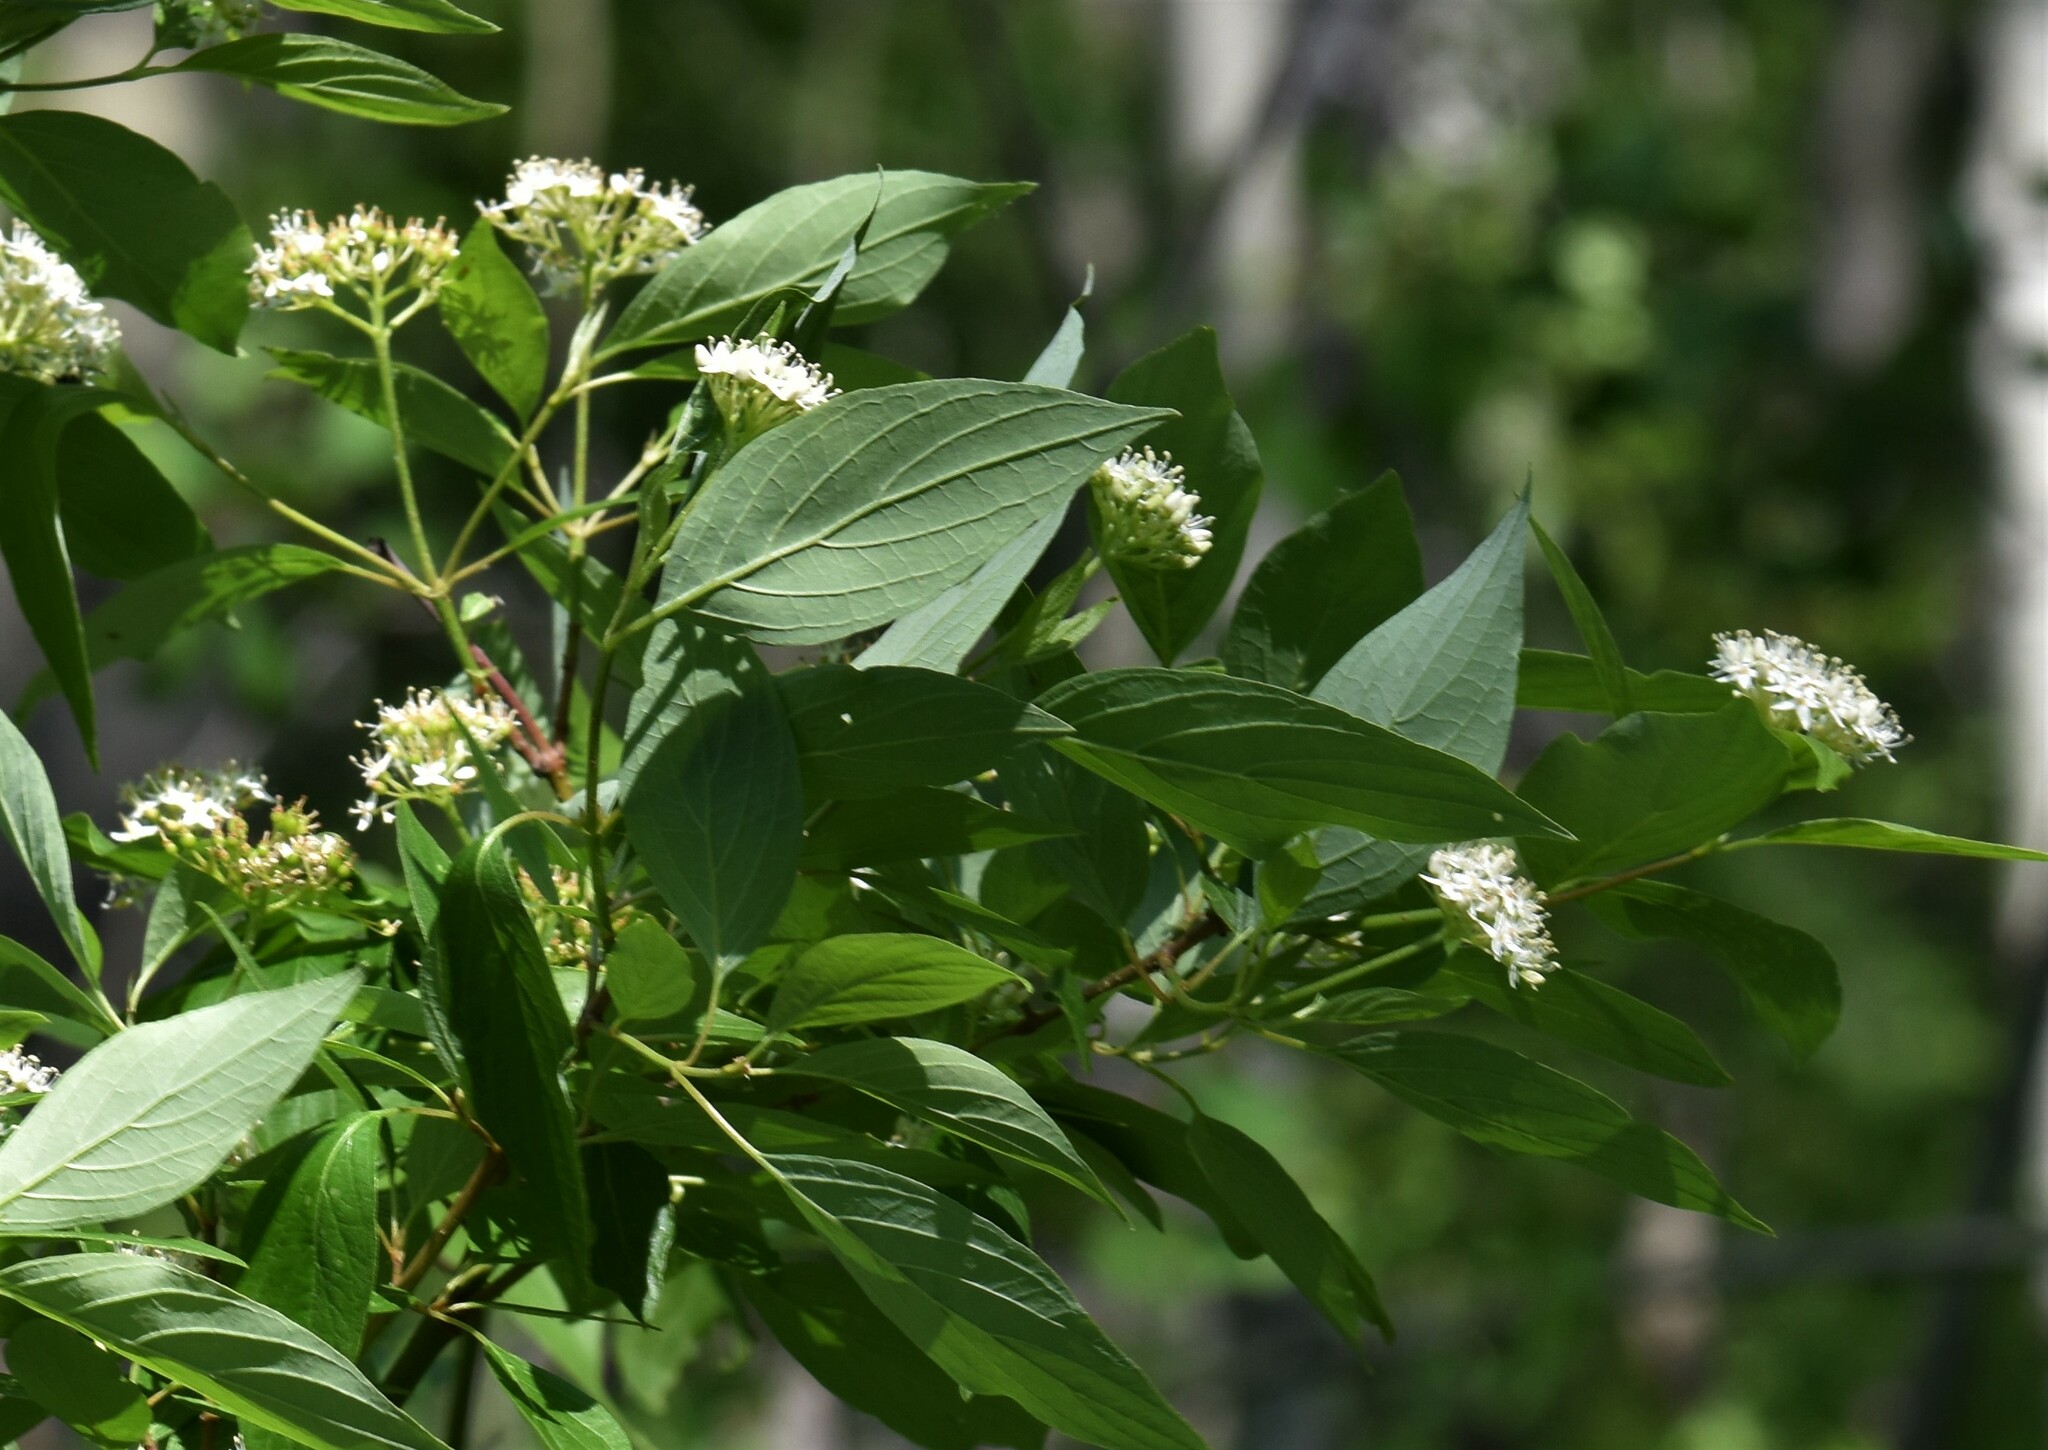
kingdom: Plantae
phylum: Tracheophyta
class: Magnoliopsida
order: Cornales
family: Cornaceae
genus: Cornus
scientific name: Cornus sericea
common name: Red-osier dogwood
